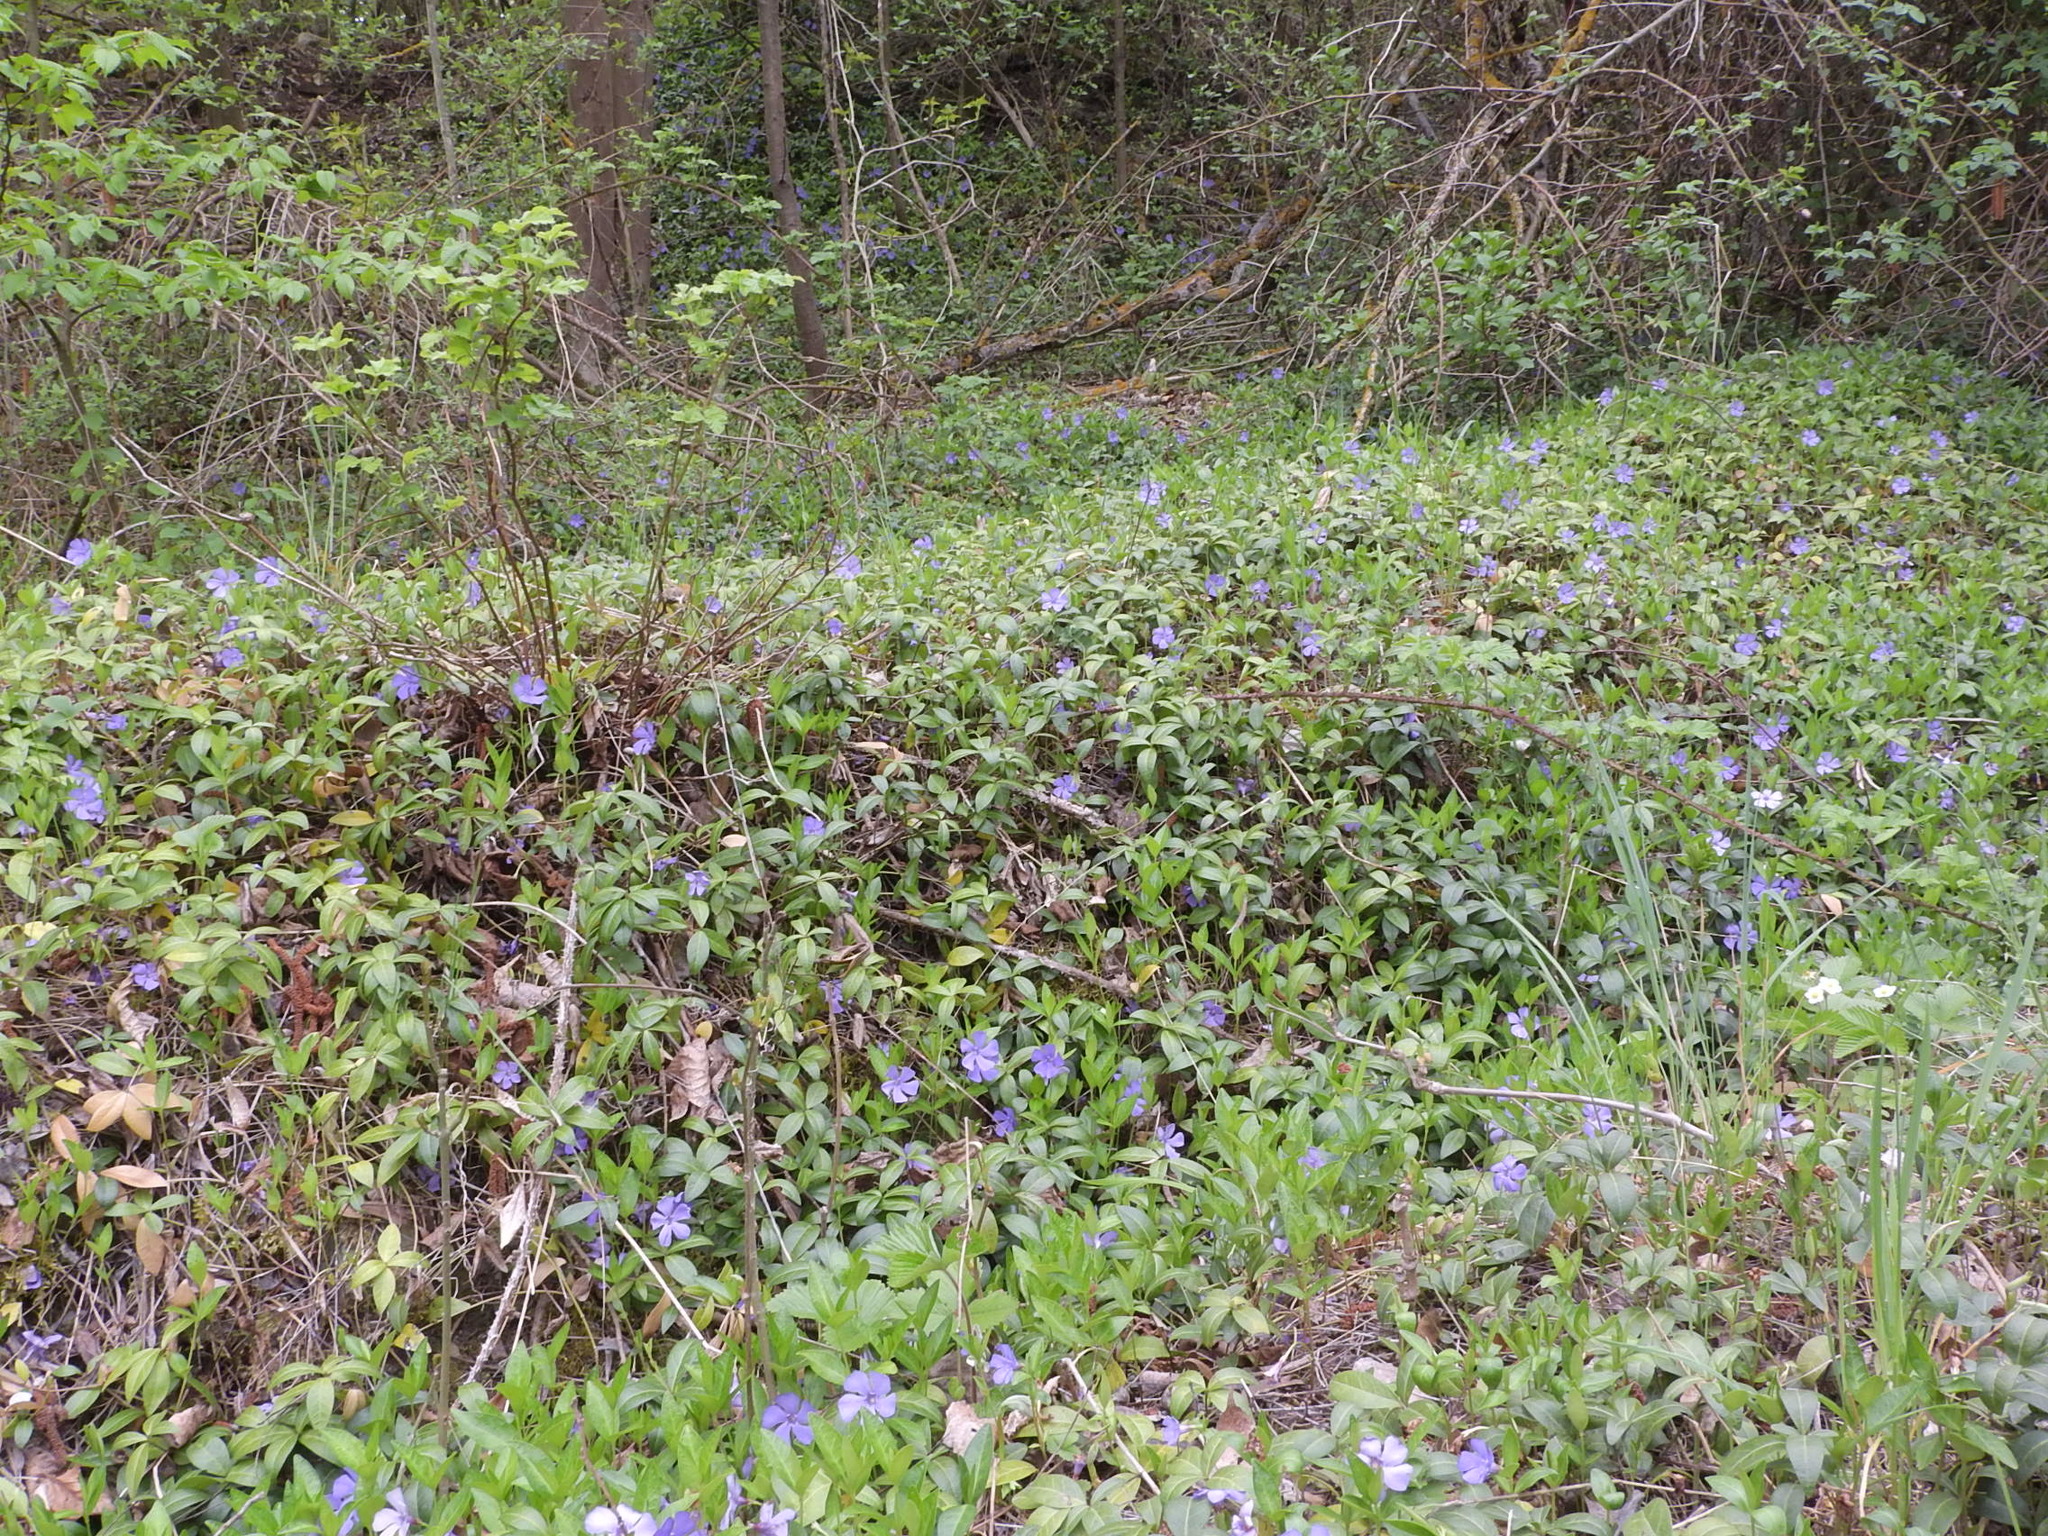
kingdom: Plantae
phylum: Tracheophyta
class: Magnoliopsida
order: Gentianales
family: Apocynaceae
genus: Vinca
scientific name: Vinca minor
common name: Lesser periwinkle
